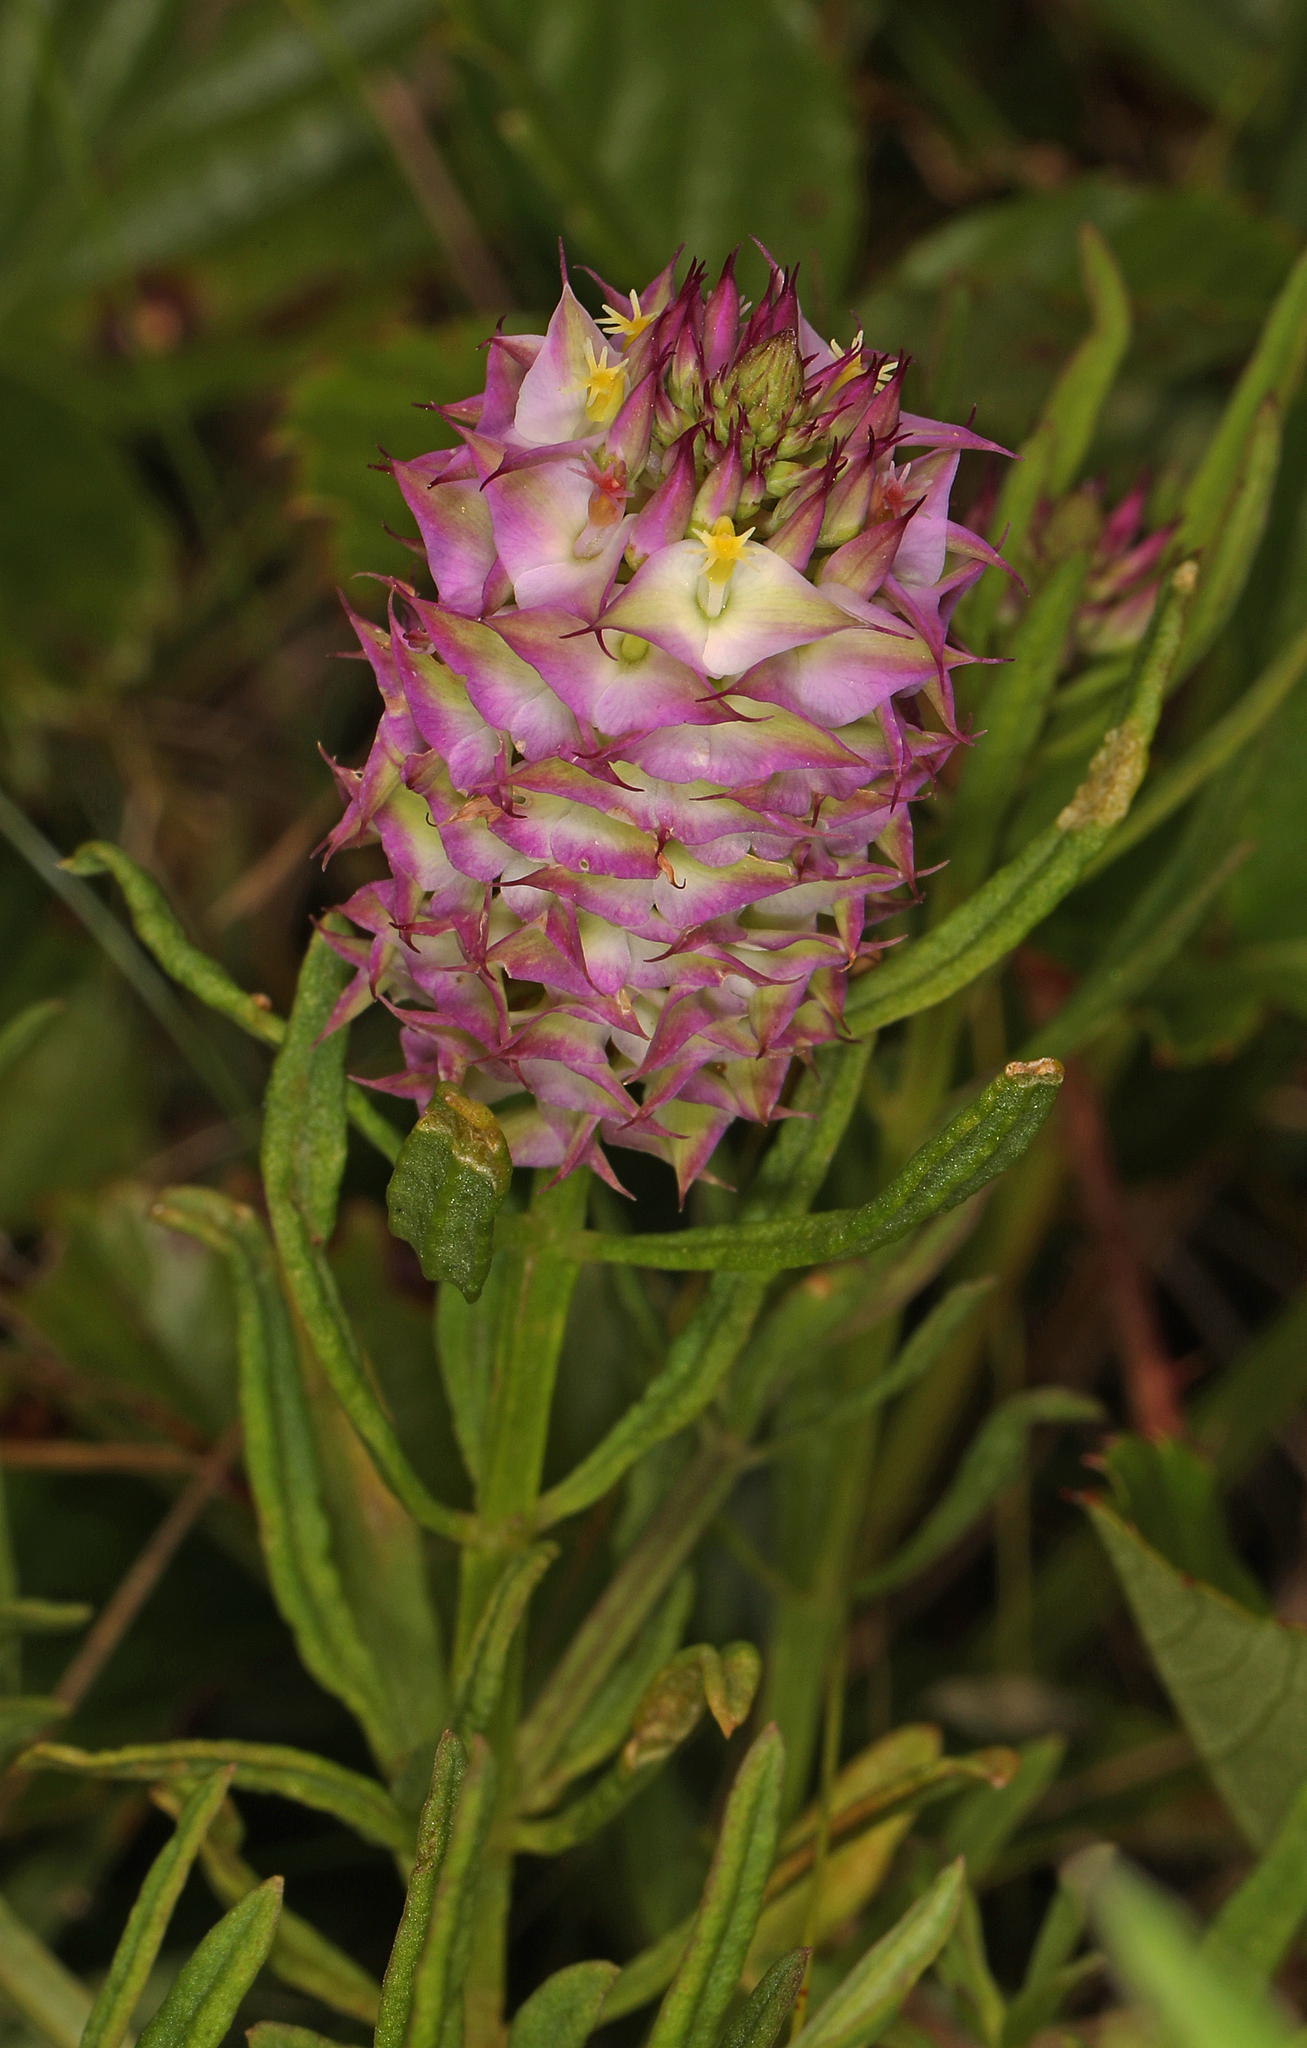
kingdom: Plantae
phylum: Tracheophyta
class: Magnoliopsida
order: Fabales
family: Polygalaceae
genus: Polygala
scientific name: Polygala cruciata
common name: Drumheads
